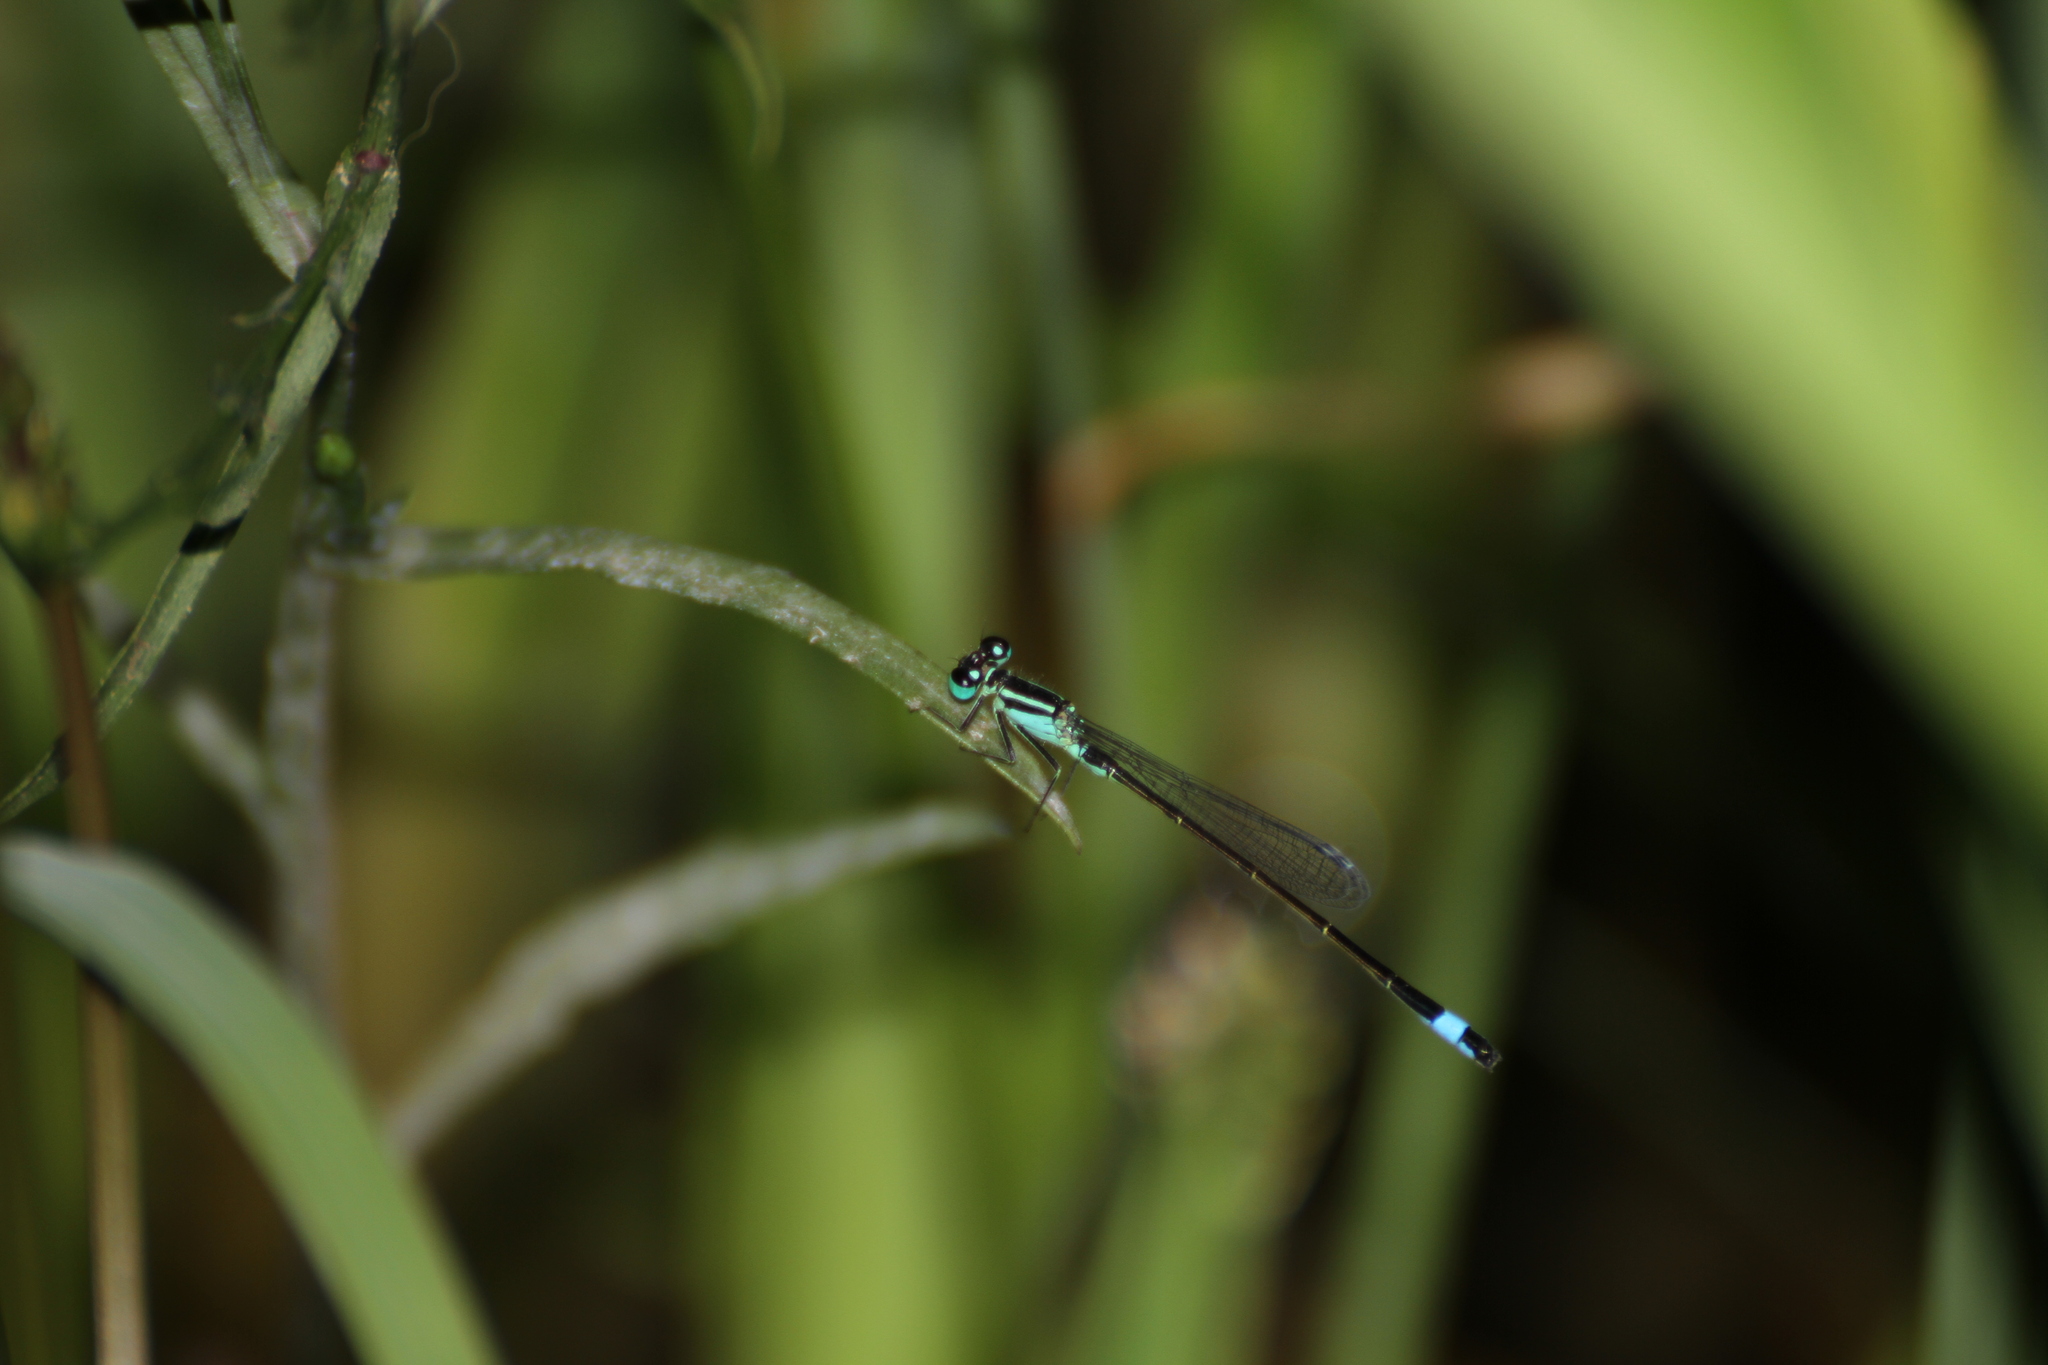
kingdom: Animalia
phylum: Arthropoda
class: Insecta
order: Odonata
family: Coenagrionidae
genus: Ischnura
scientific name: Ischnura elegans
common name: Blue-tailed damselfly
